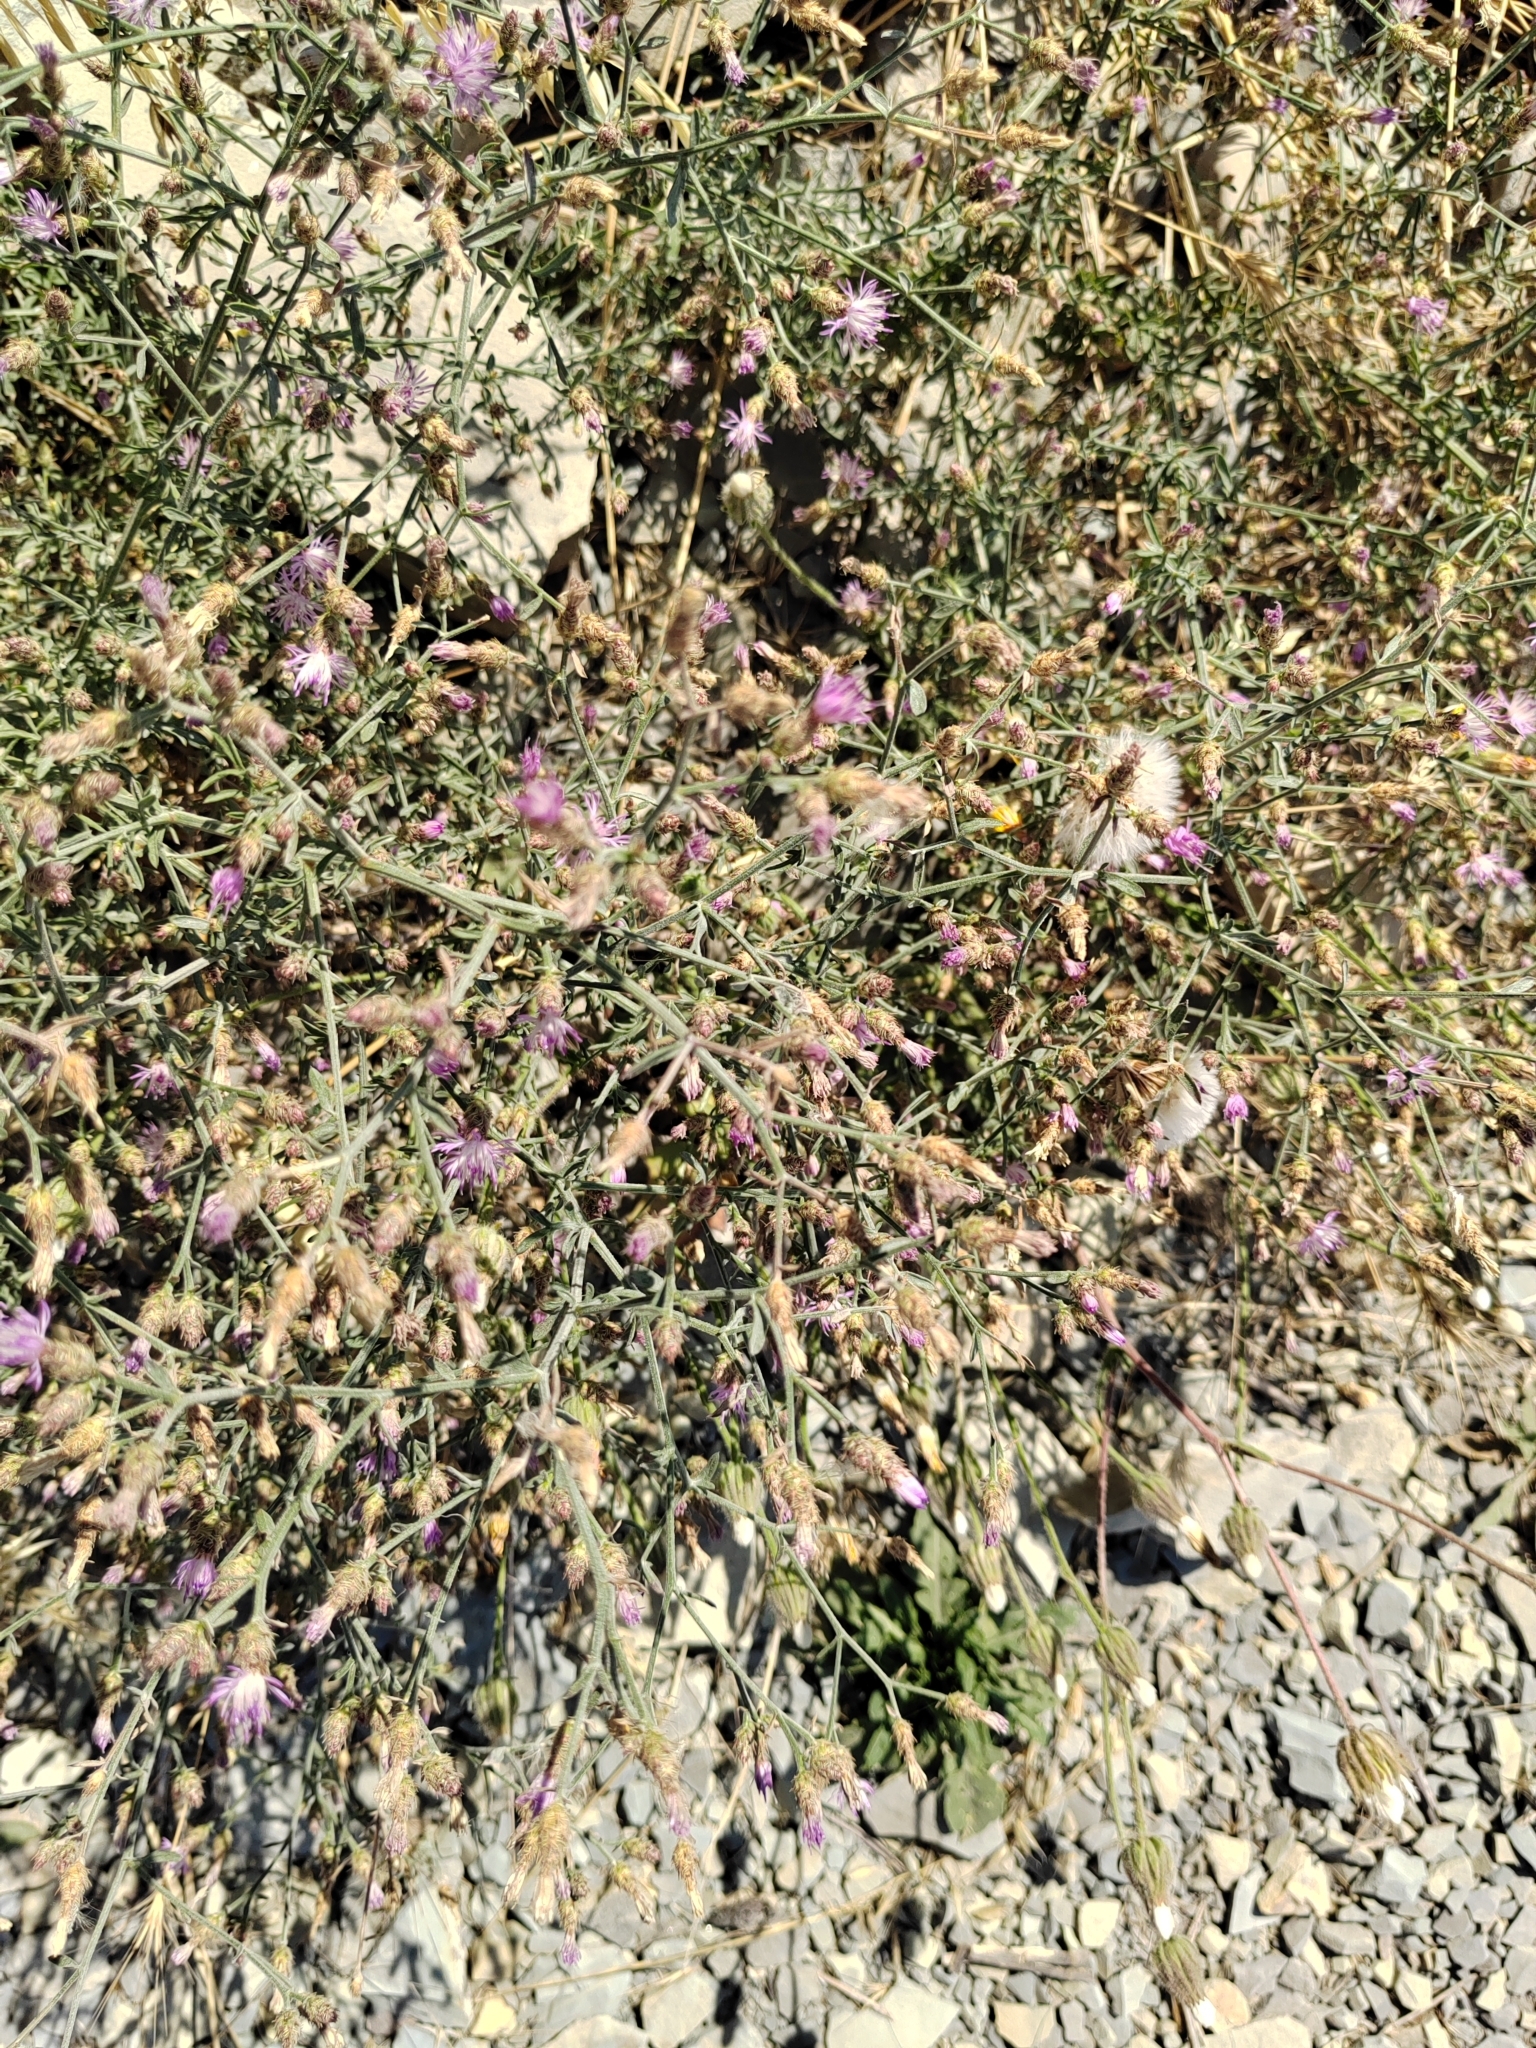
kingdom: Plantae
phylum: Tracheophyta
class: Magnoliopsida
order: Asterales
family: Asteraceae
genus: Centaurea
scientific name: Centaurea diffusa
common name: Diffuse knapweed
